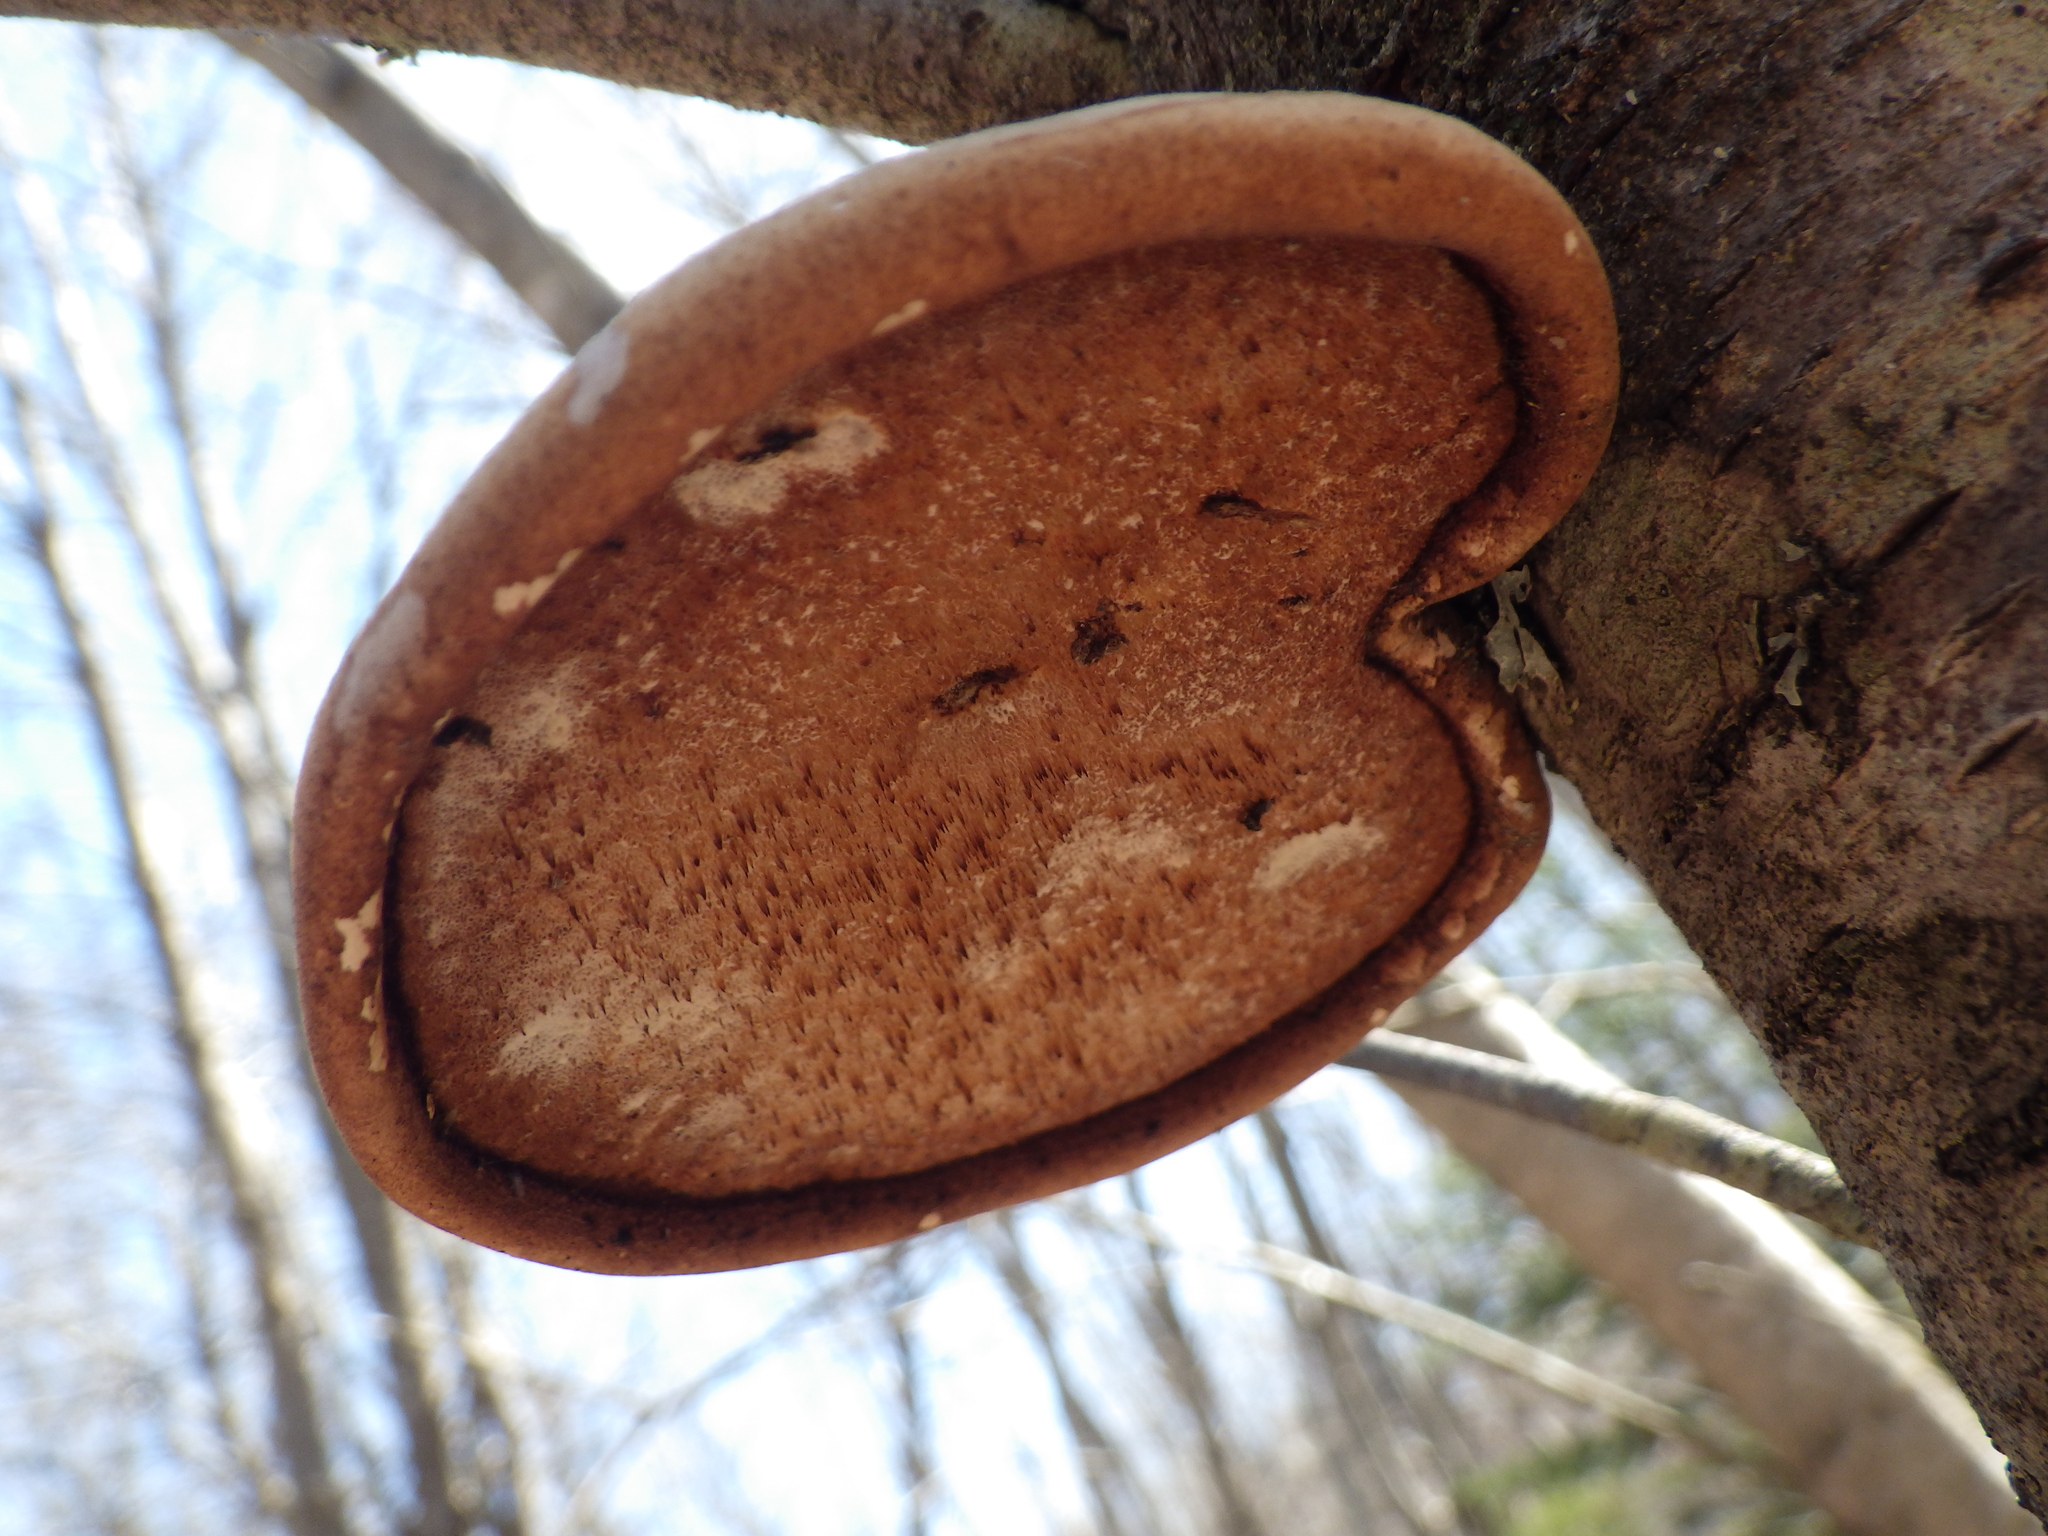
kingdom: Fungi
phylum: Basidiomycota
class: Agaricomycetes
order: Polyporales
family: Fomitopsidaceae
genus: Fomitopsis
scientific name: Fomitopsis betulina
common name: Birch polypore
